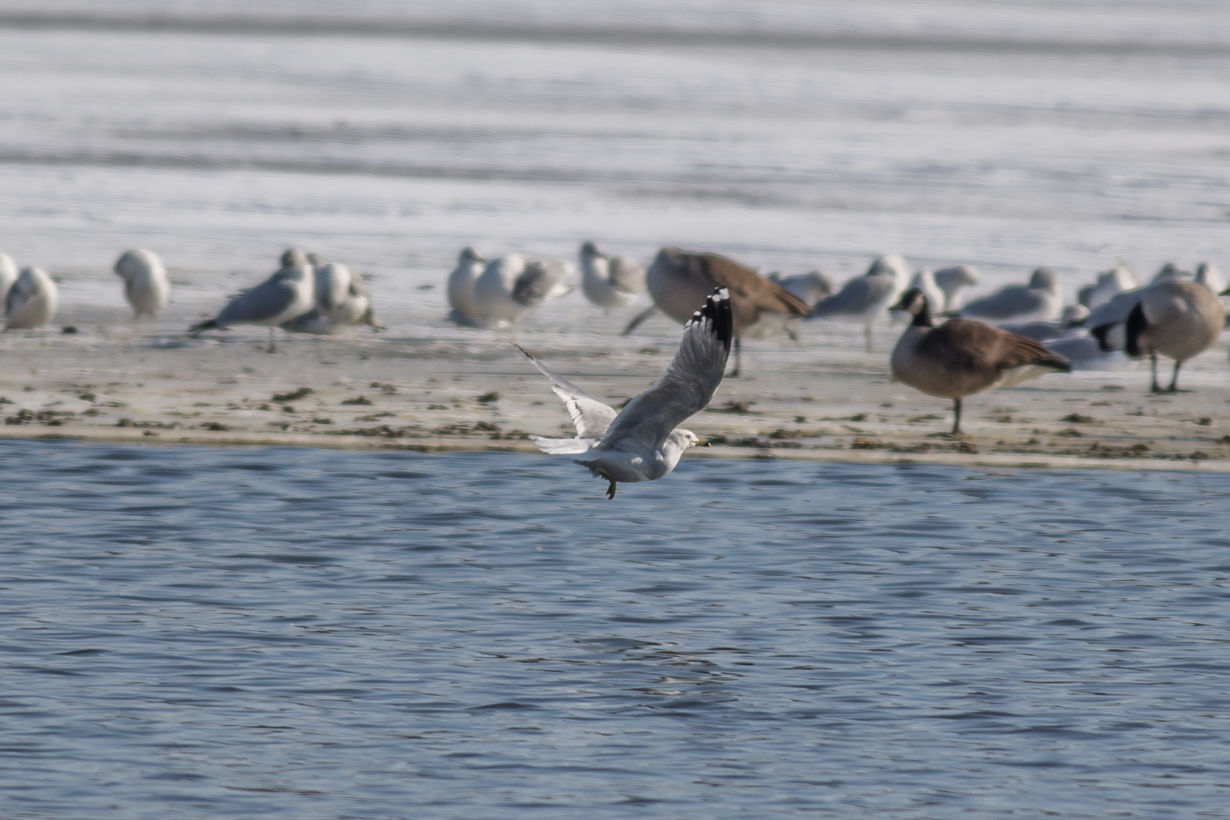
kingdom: Animalia
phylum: Chordata
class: Aves
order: Charadriiformes
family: Laridae
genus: Larus
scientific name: Larus delawarensis
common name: Ring-billed gull
